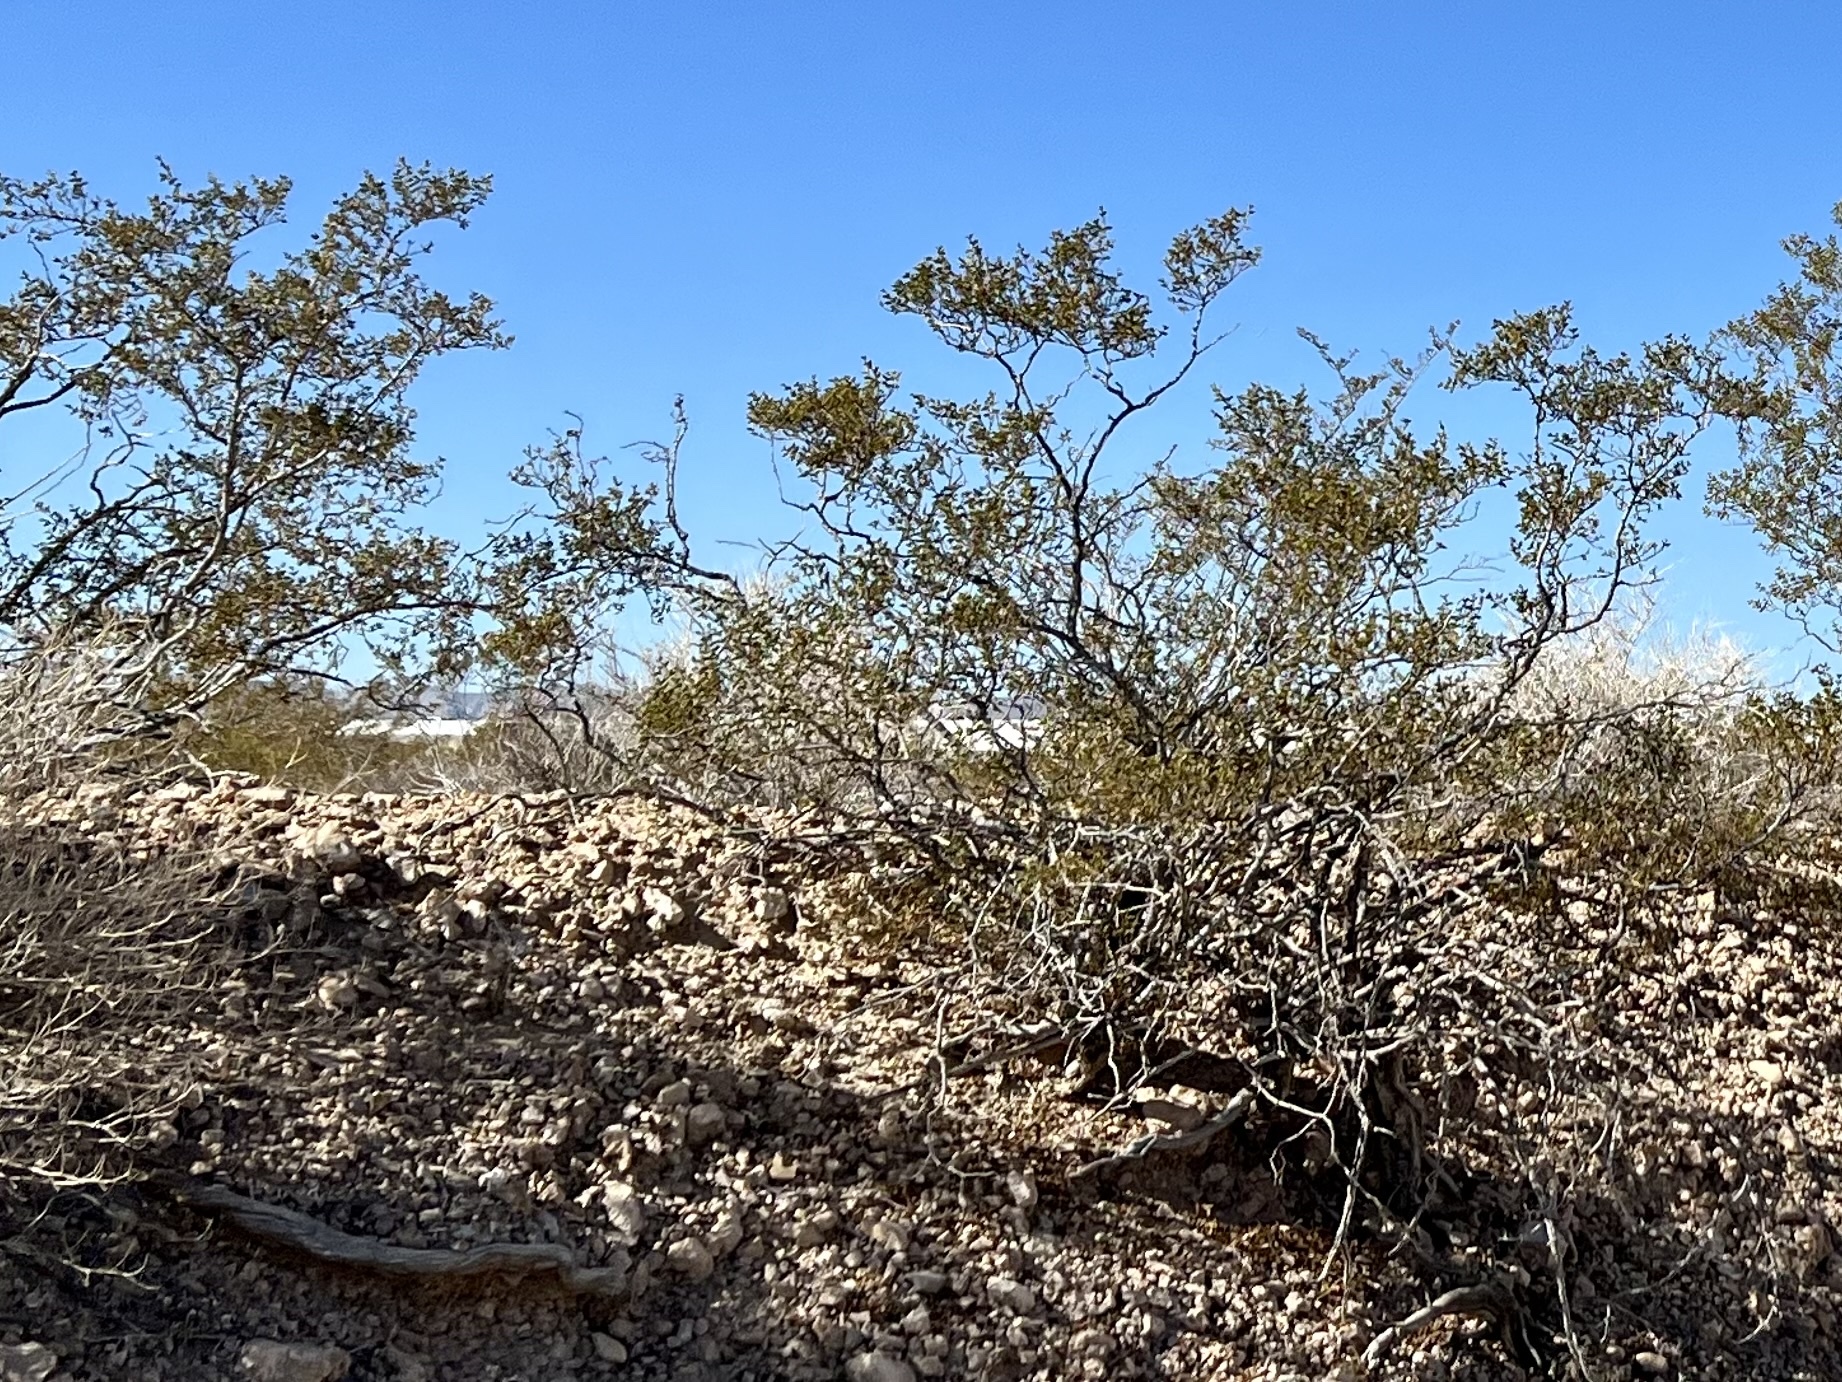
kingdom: Plantae
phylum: Tracheophyta
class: Magnoliopsida
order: Zygophyllales
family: Zygophyllaceae
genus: Larrea
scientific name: Larrea tridentata
